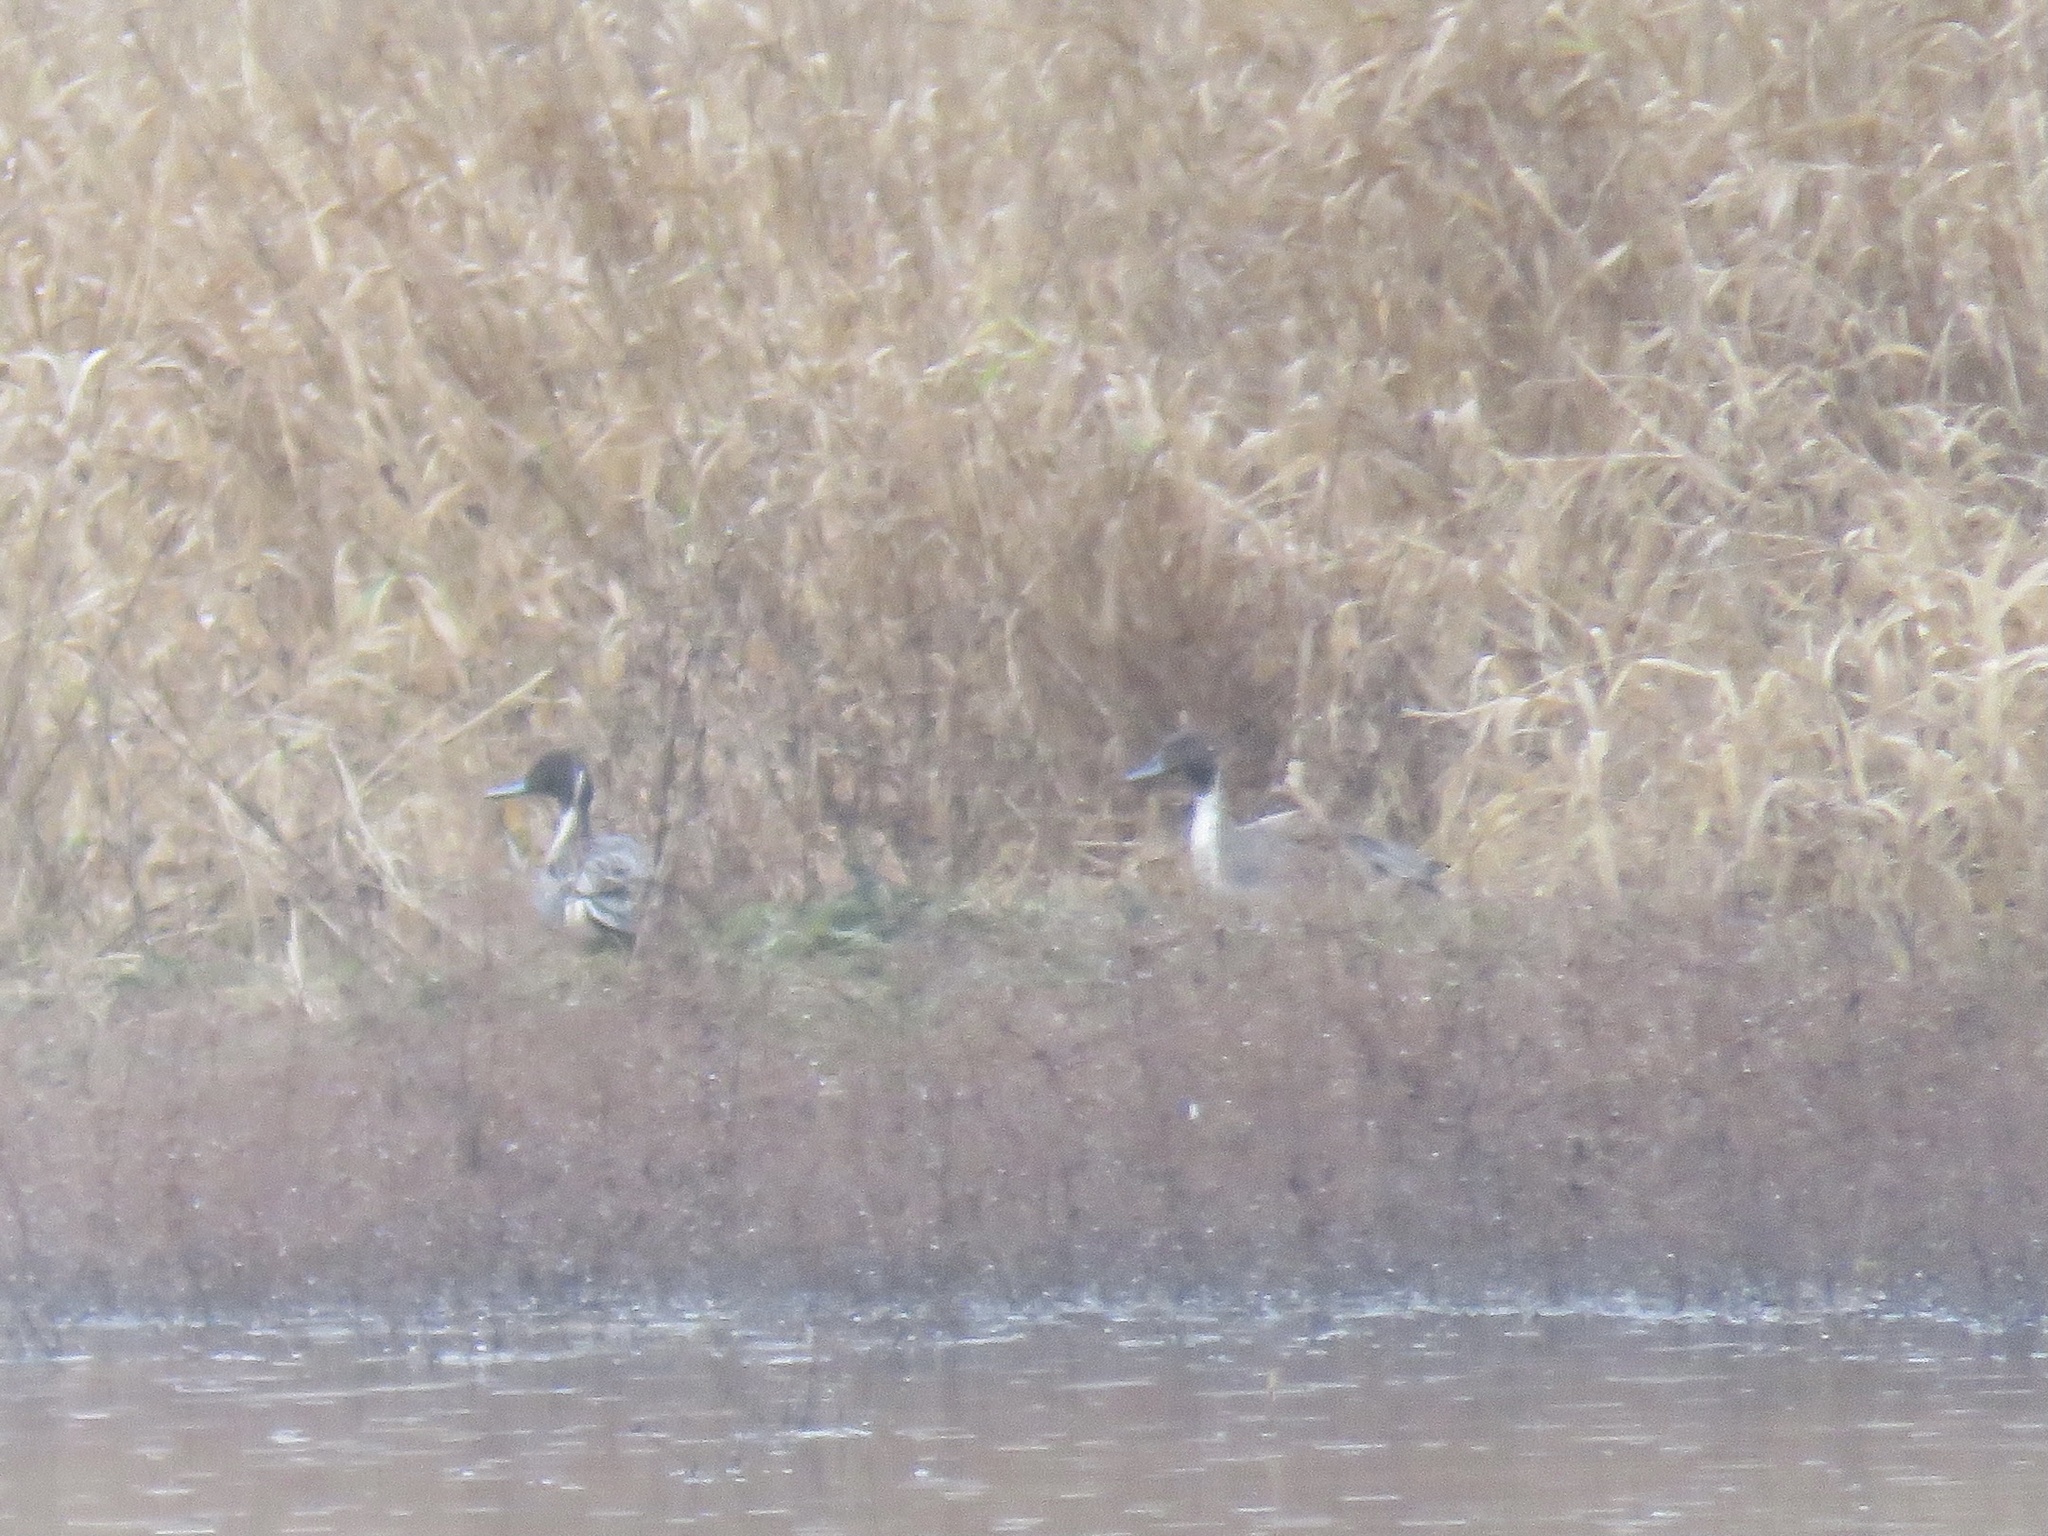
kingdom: Animalia
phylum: Chordata
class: Aves
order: Anseriformes
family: Anatidae
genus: Anas
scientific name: Anas acuta
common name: Northern pintail
